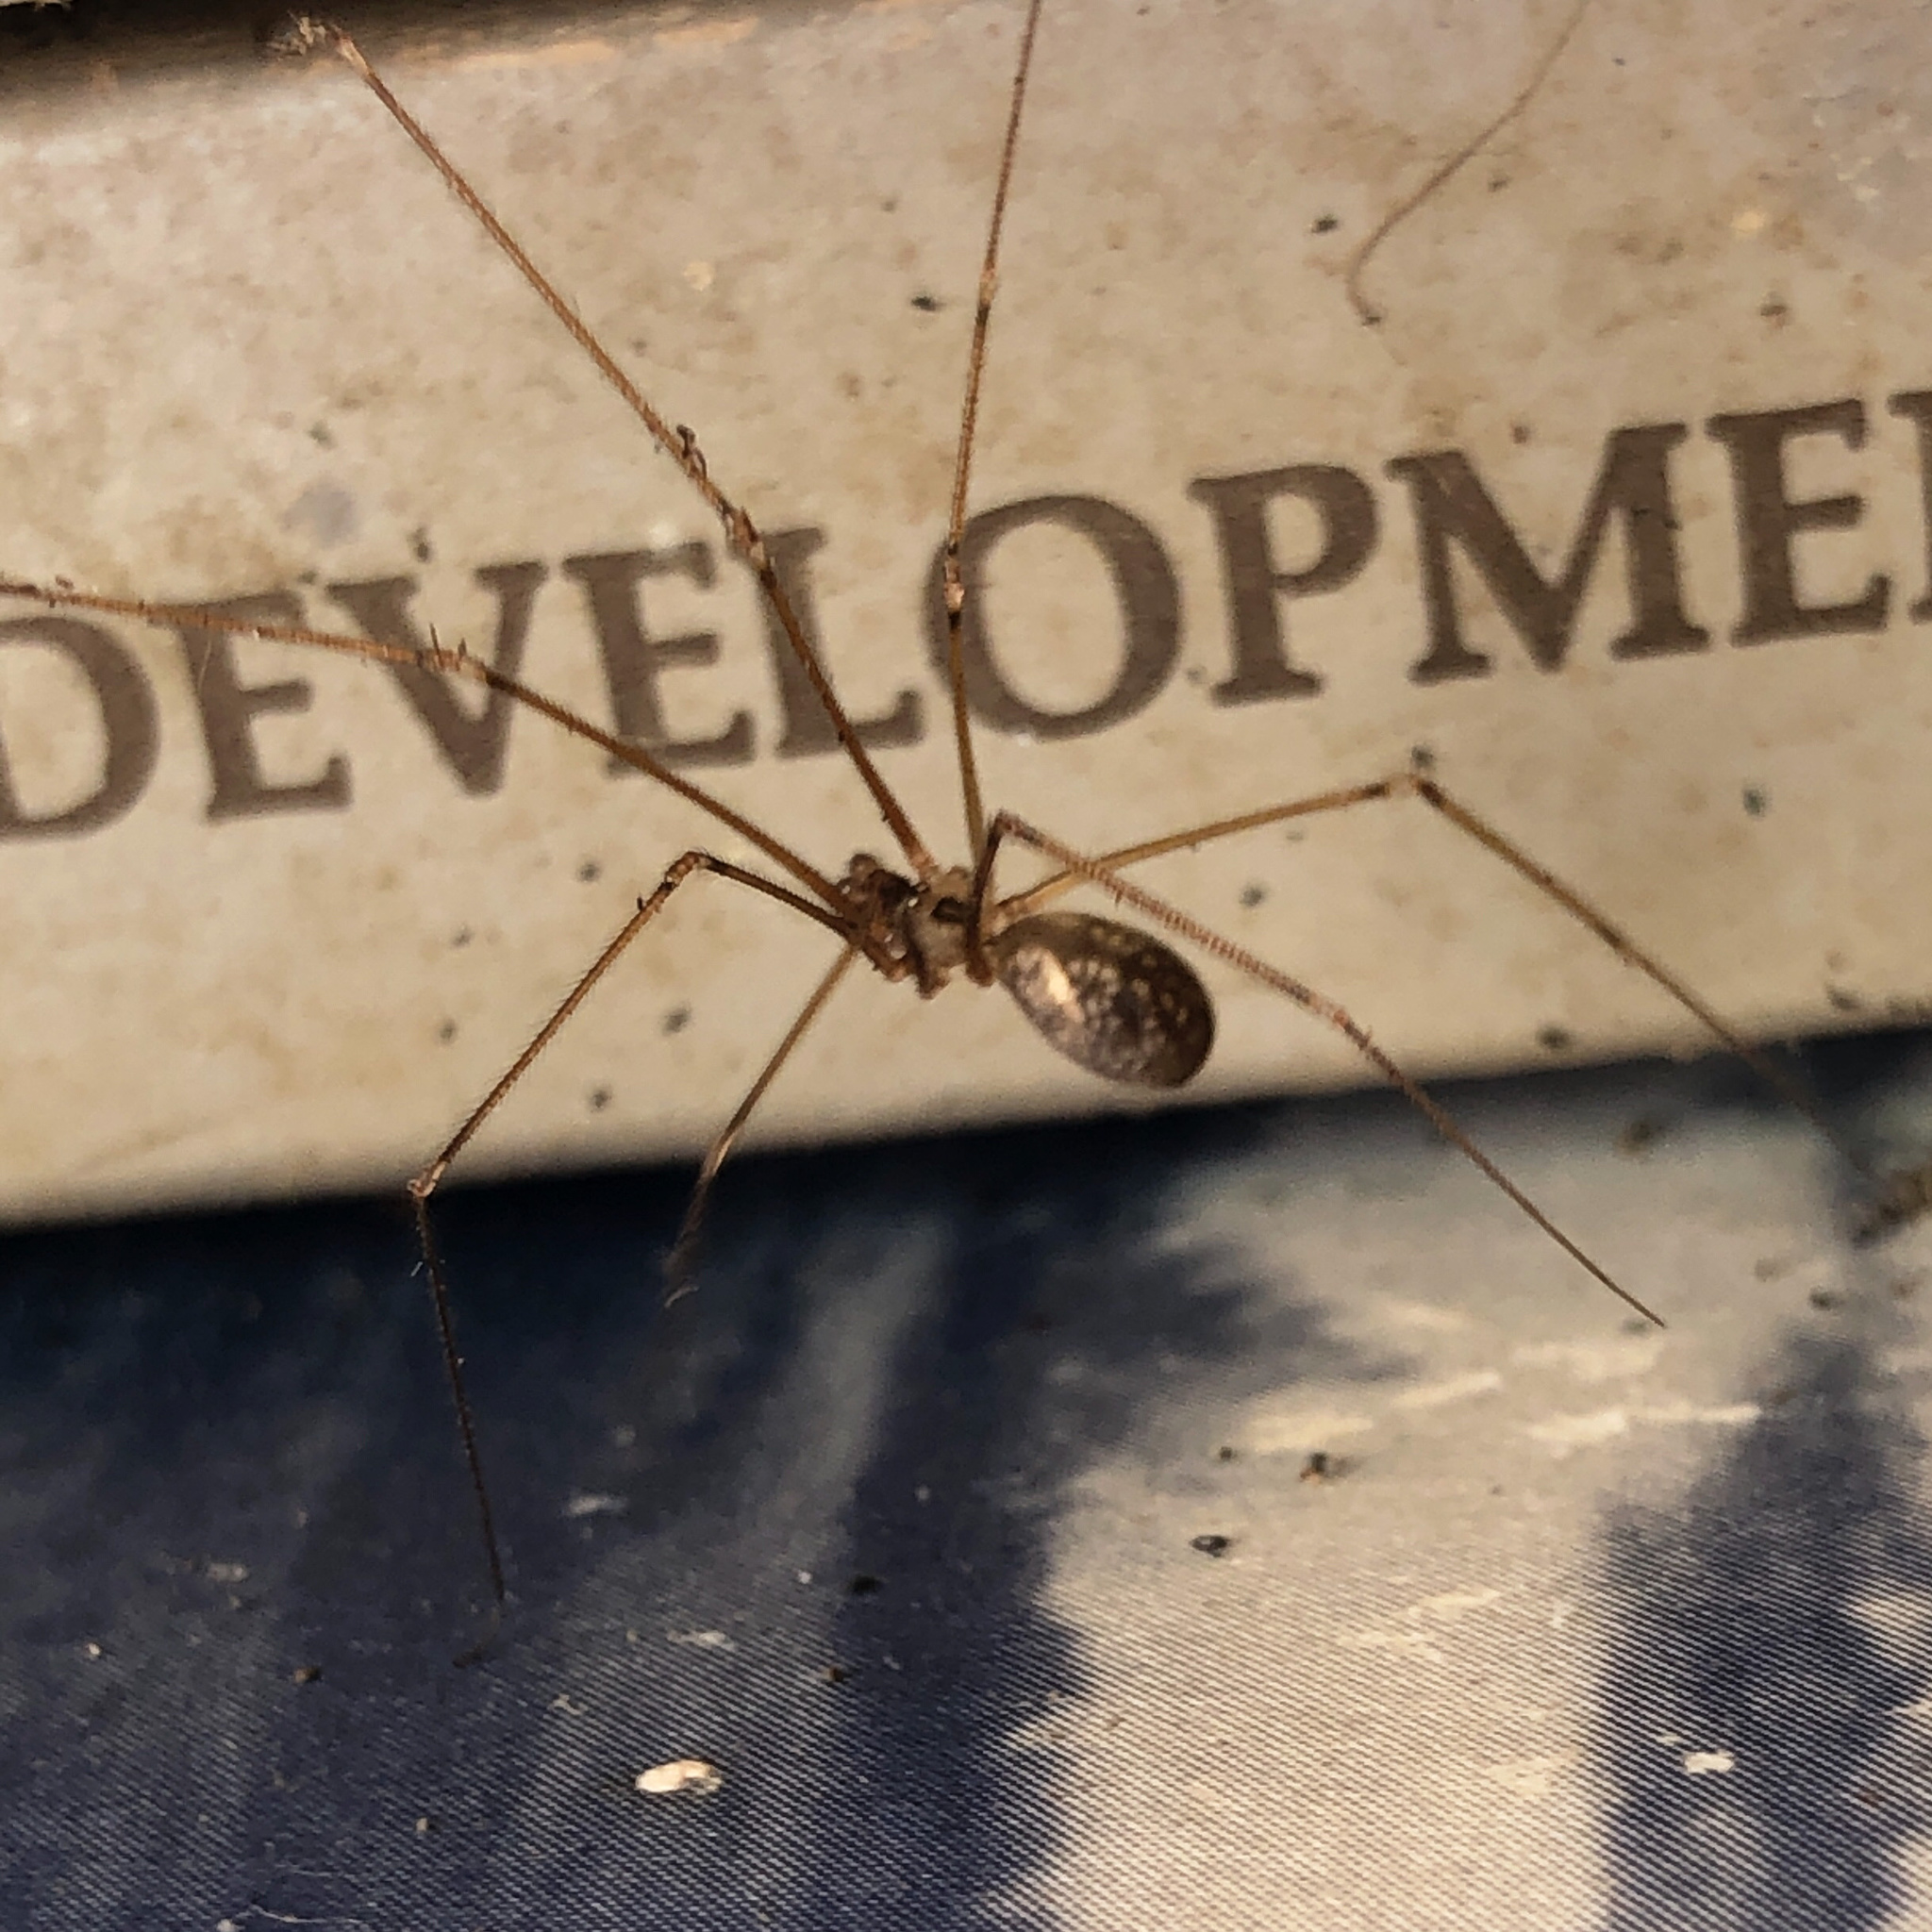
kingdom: Animalia
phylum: Arthropoda
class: Arachnida
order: Araneae
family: Pholcidae
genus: Pholcus
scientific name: Pholcus manueli
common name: Cellar spider
